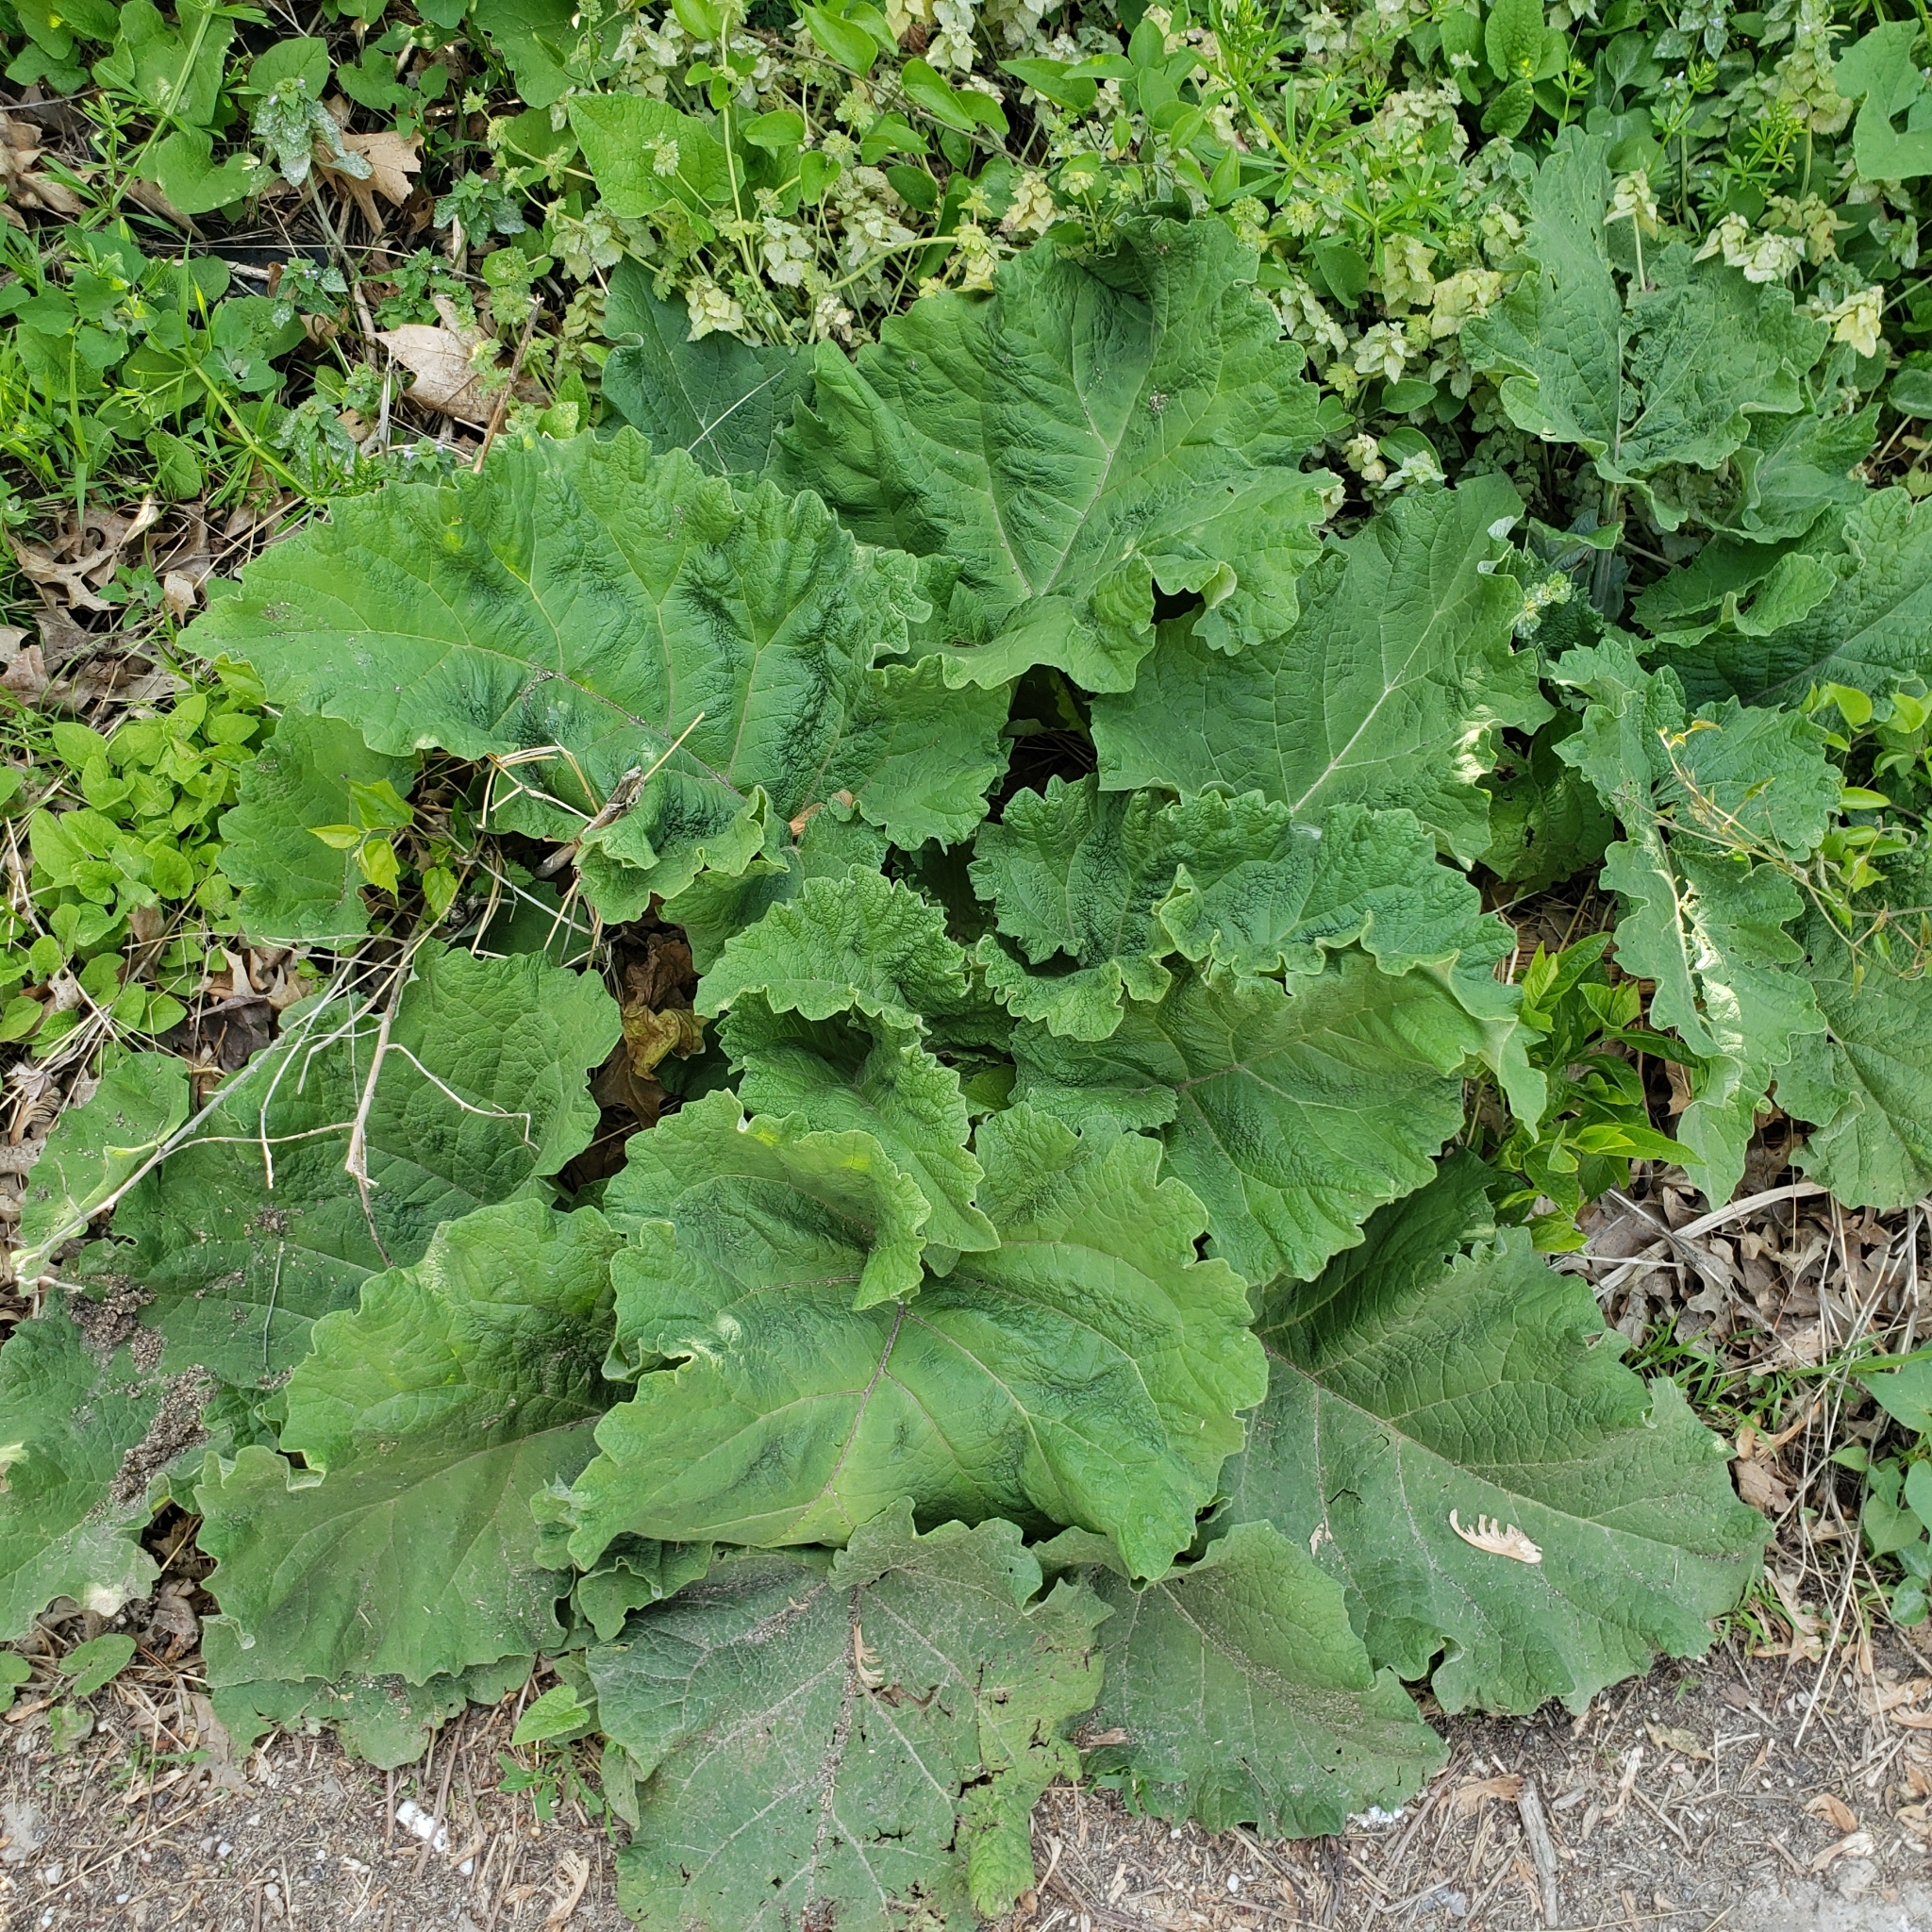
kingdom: Plantae
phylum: Tracheophyta
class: Magnoliopsida
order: Asterales
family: Asteraceae
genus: Arctium
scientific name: Arctium minus
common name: Lesser burdock
